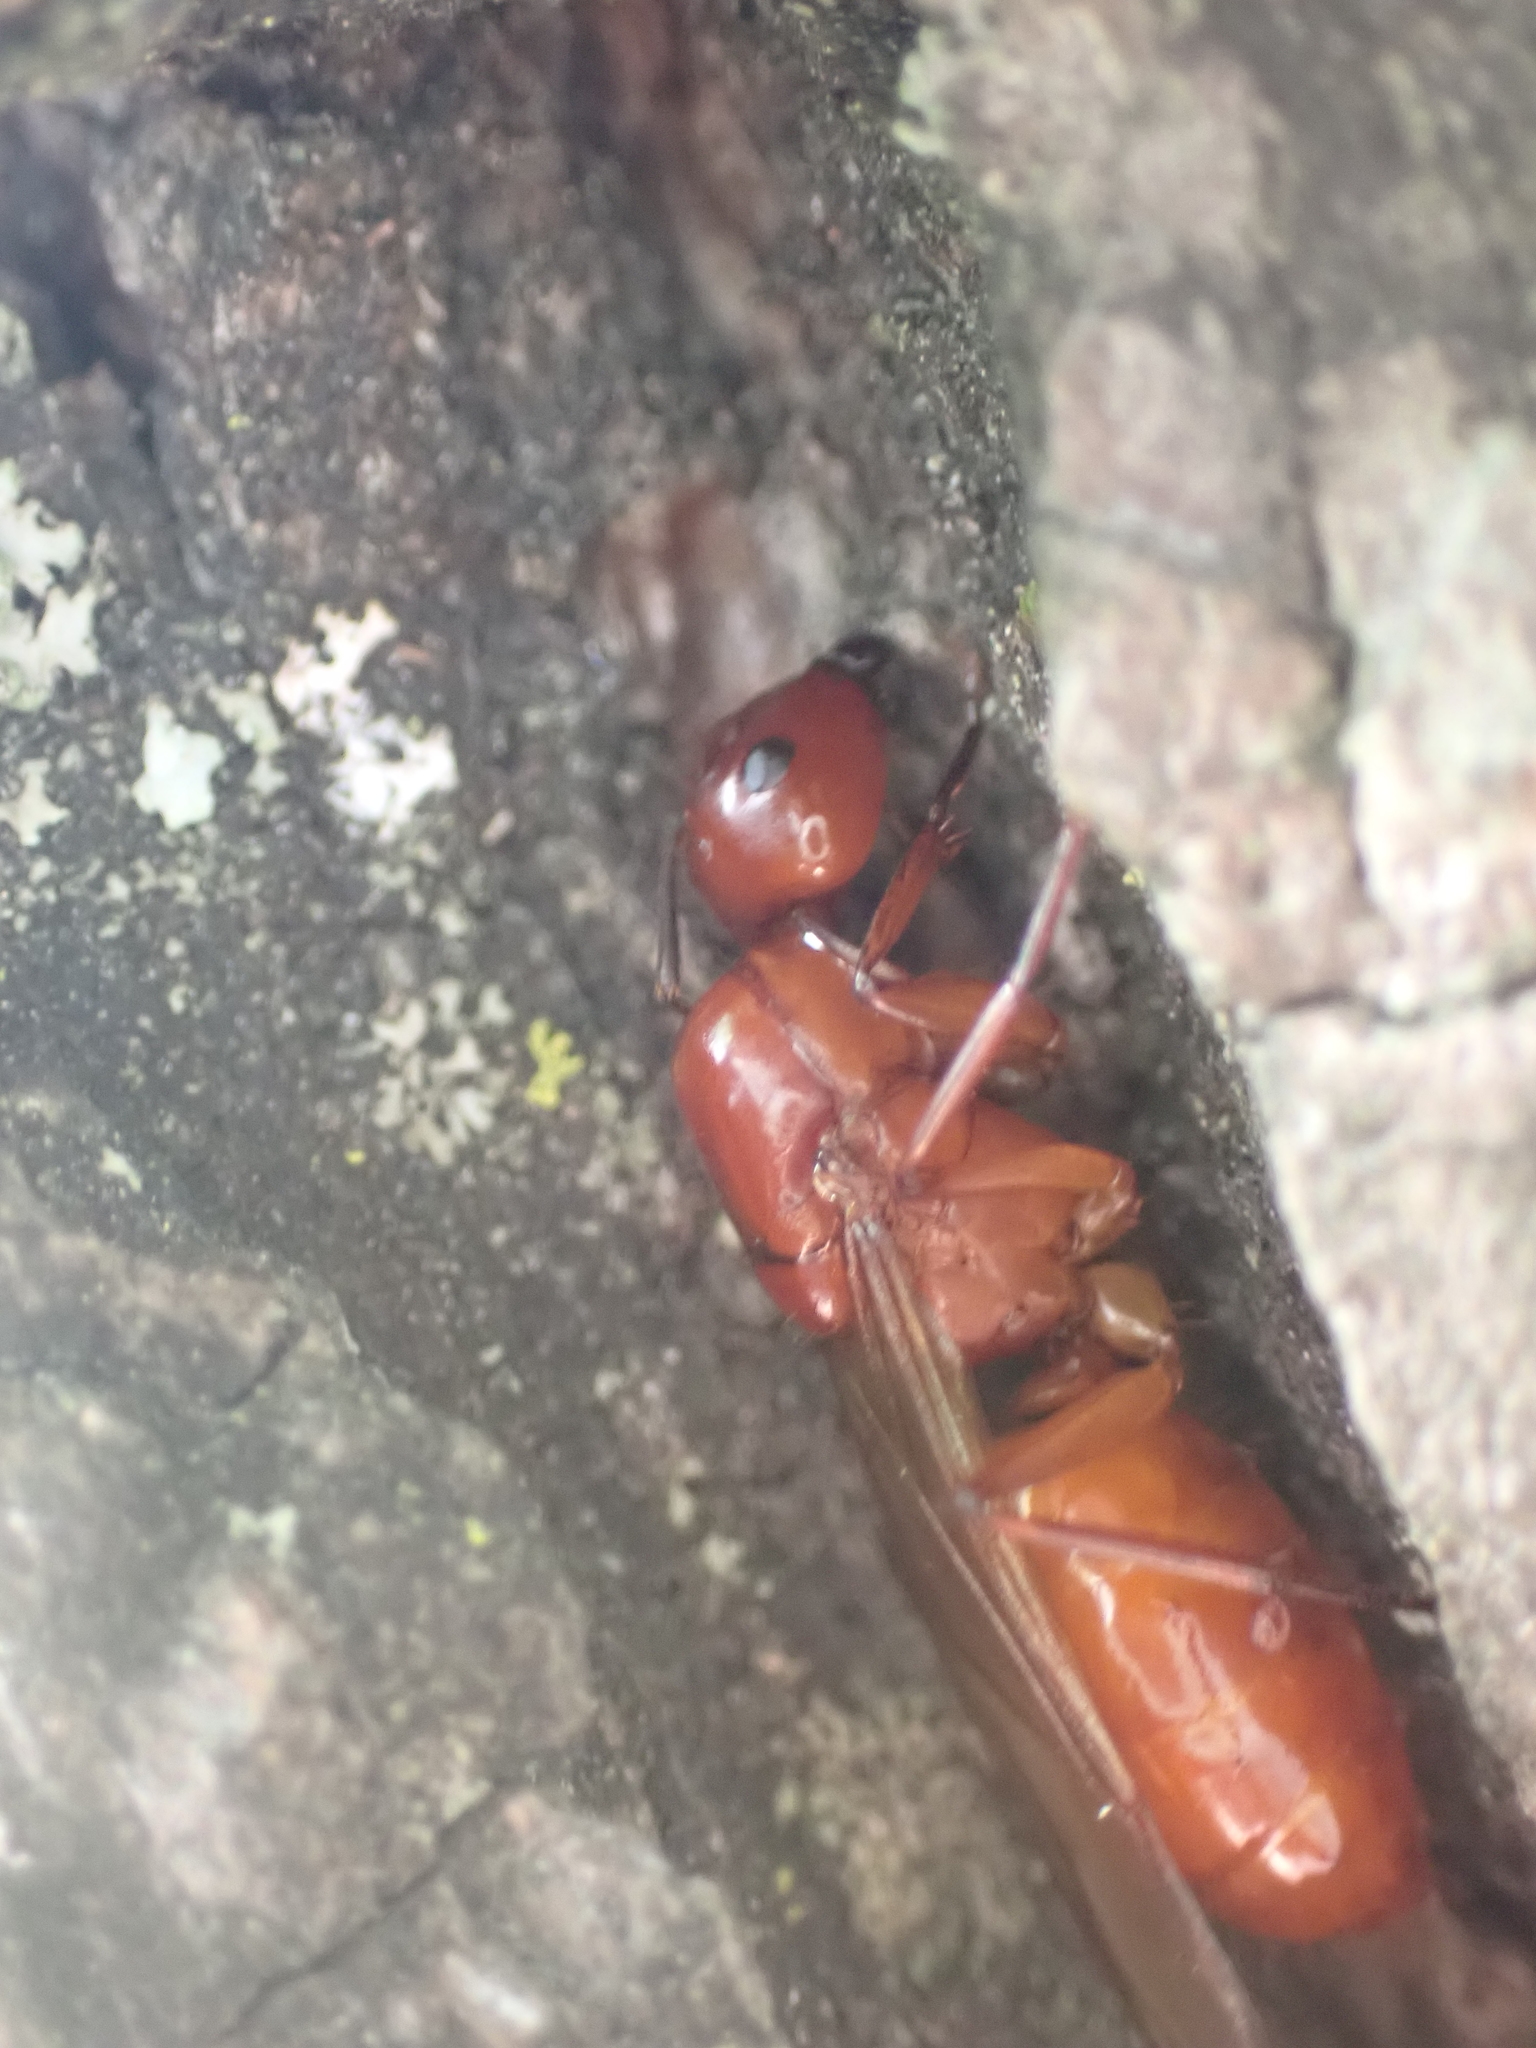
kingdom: Animalia
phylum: Arthropoda
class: Insecta
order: Hymenoptera
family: Formicidae
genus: Camponotus
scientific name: Camponotus castaneus
